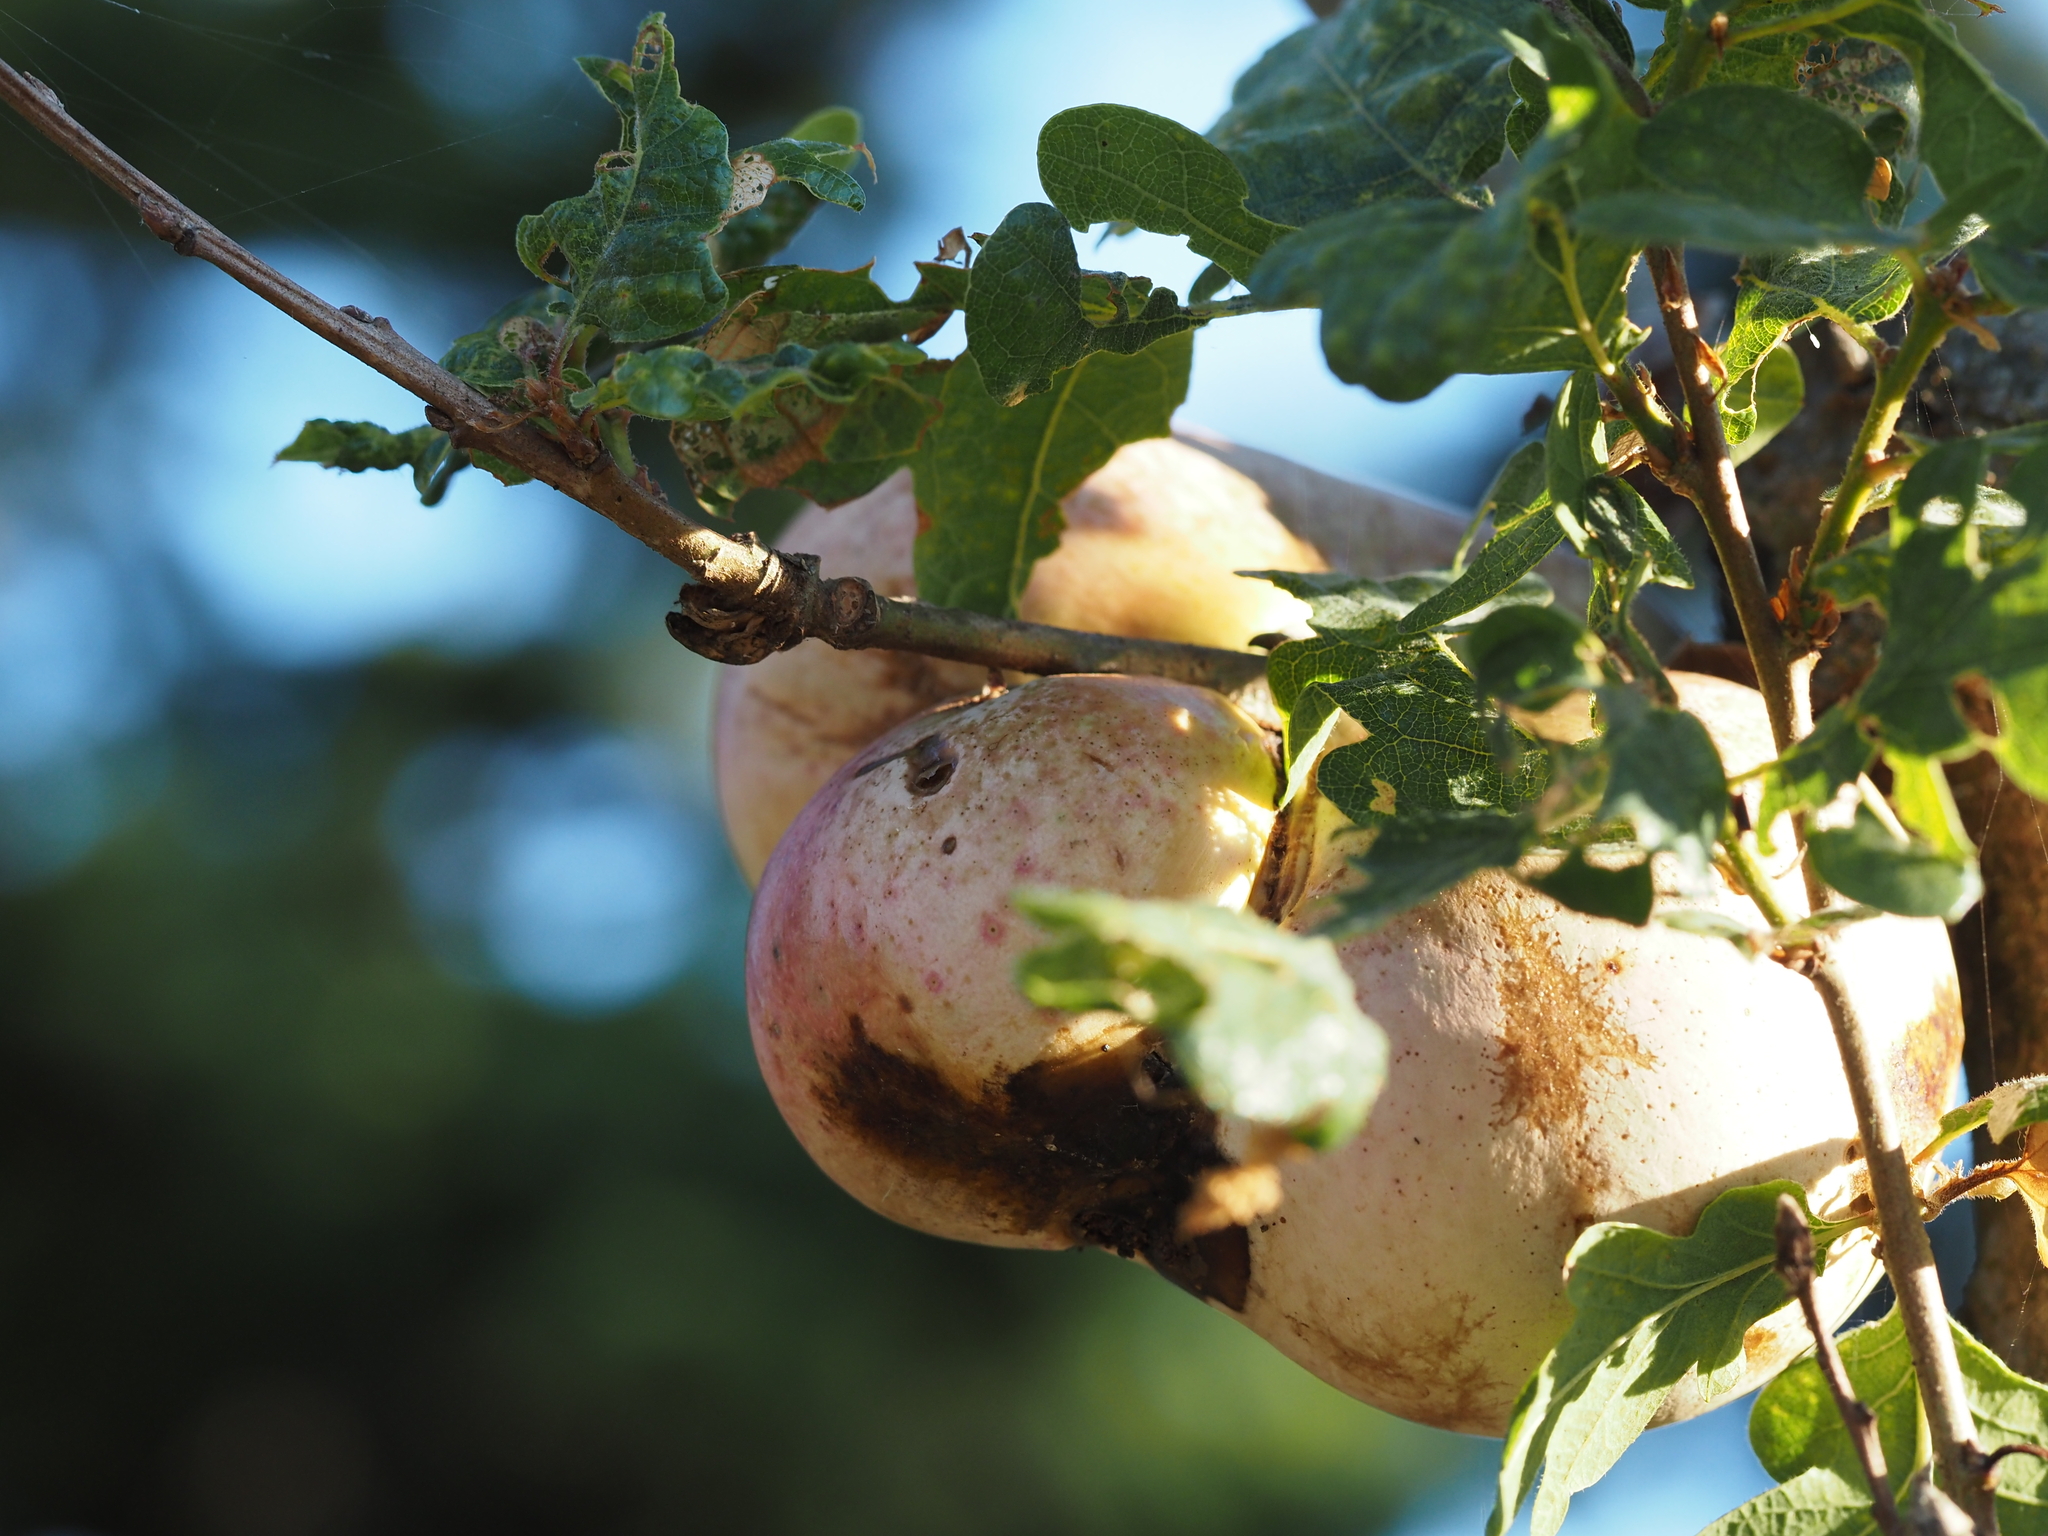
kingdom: Animalia
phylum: Arthropoda
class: Insecta
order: Hymenoptera
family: Cynipidae
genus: Andricus
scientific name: Andricus quercuscalifornicus
